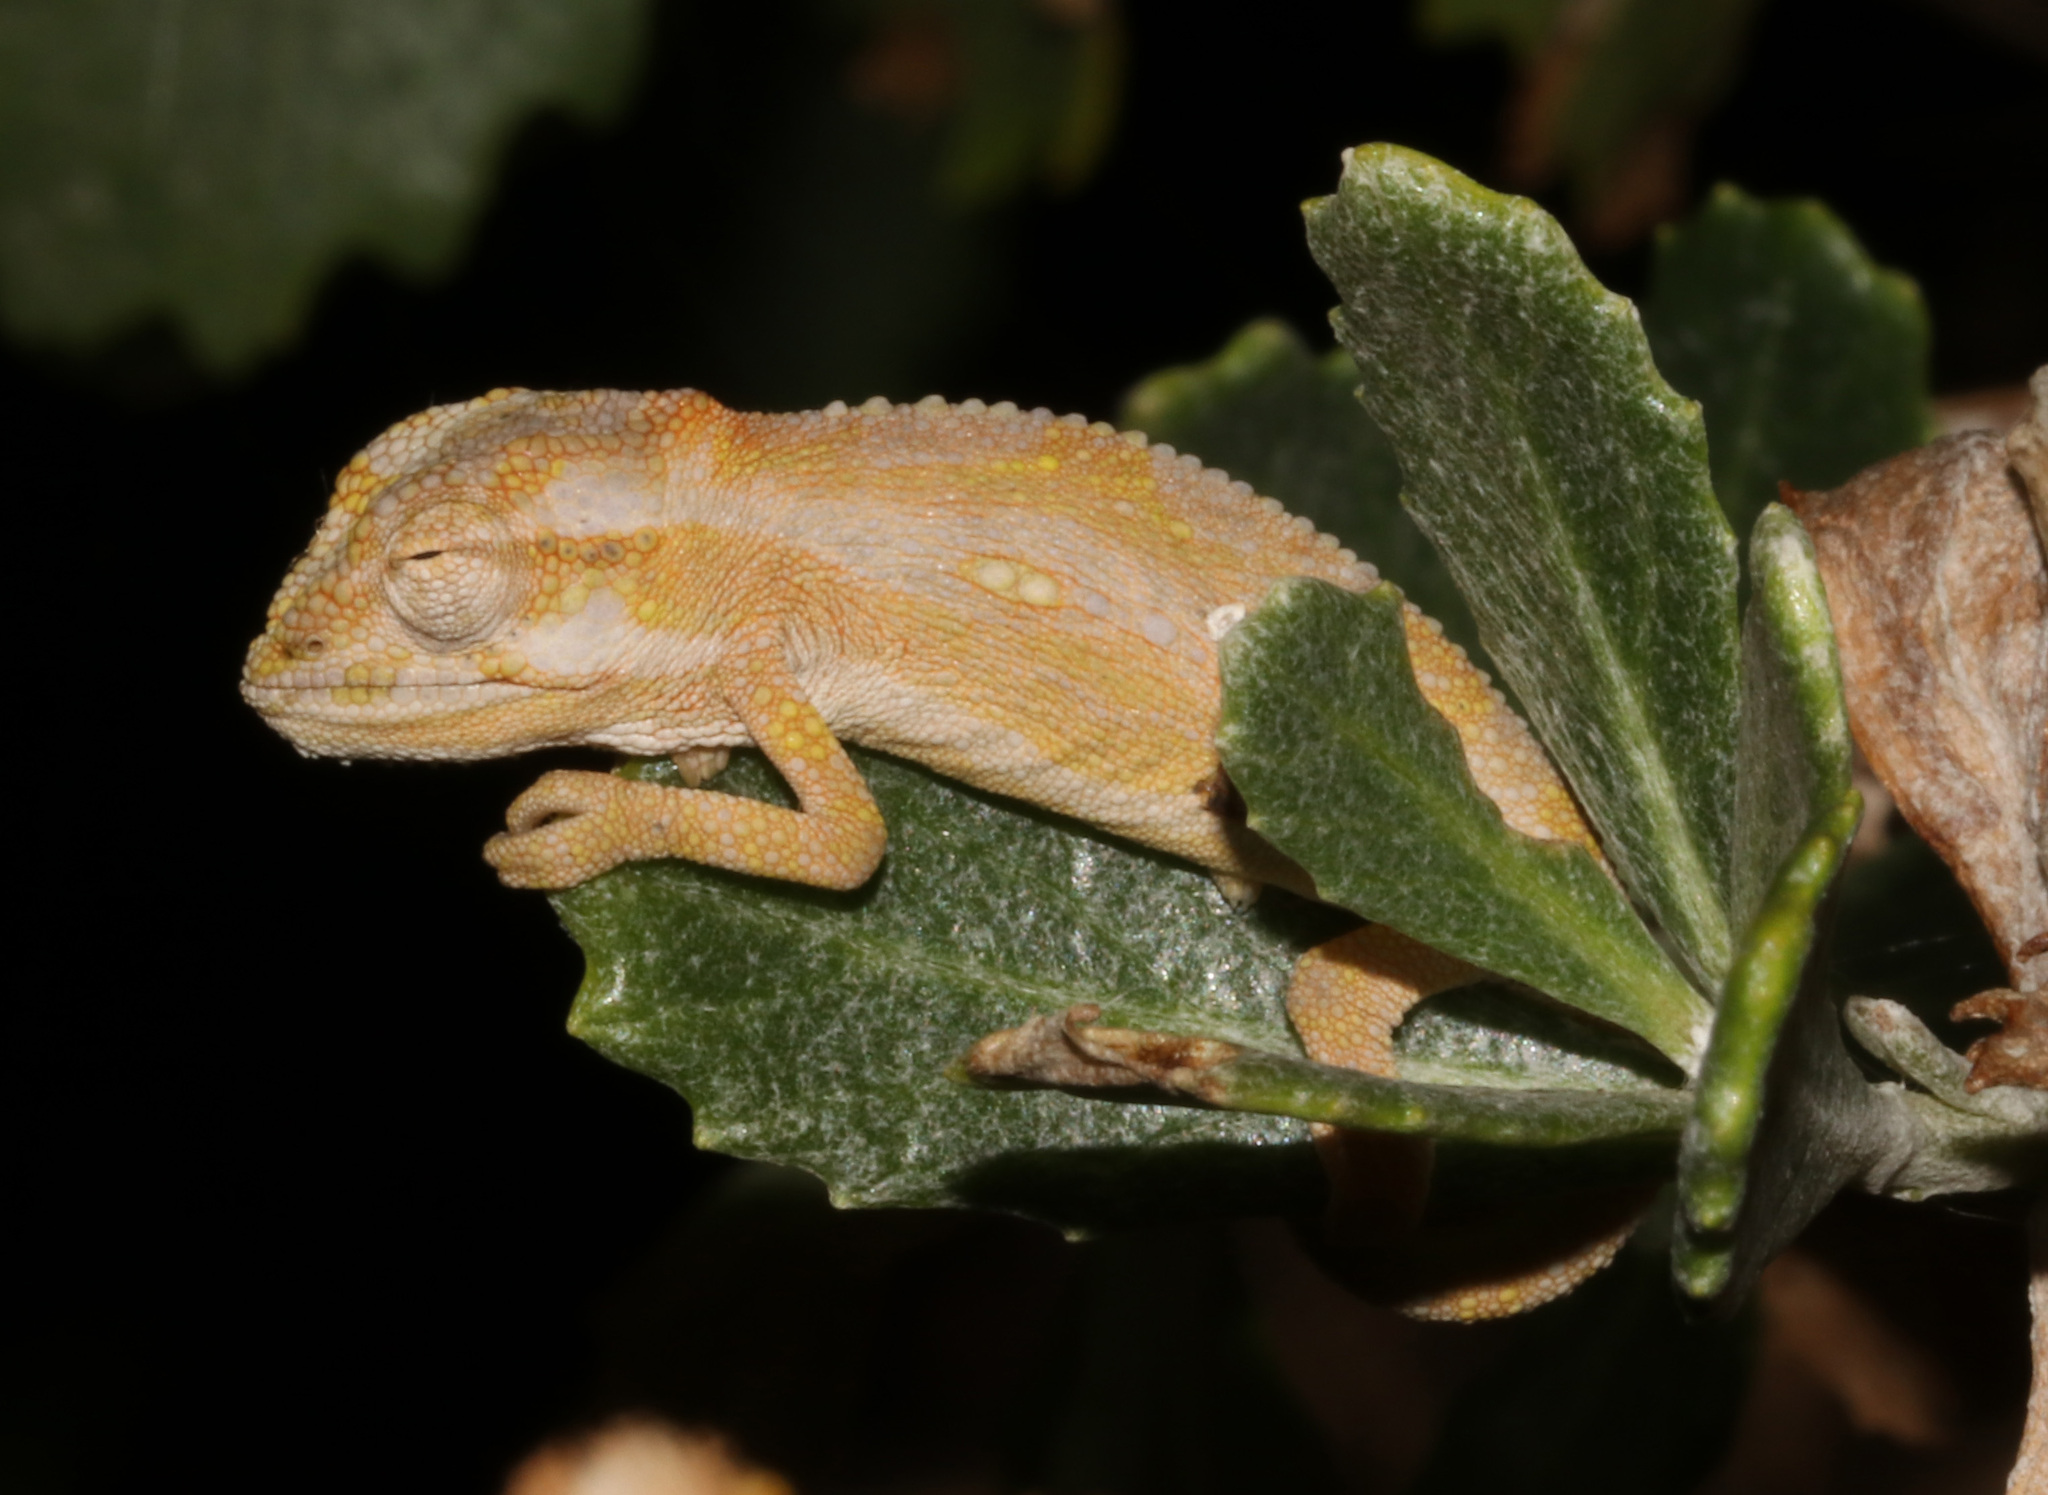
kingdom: Animalia
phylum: Chordata
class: Squamata
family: Chamaeleonidae
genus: Bradypodion
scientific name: Bradypodion pumilum
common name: Cape dwarf chameleon
